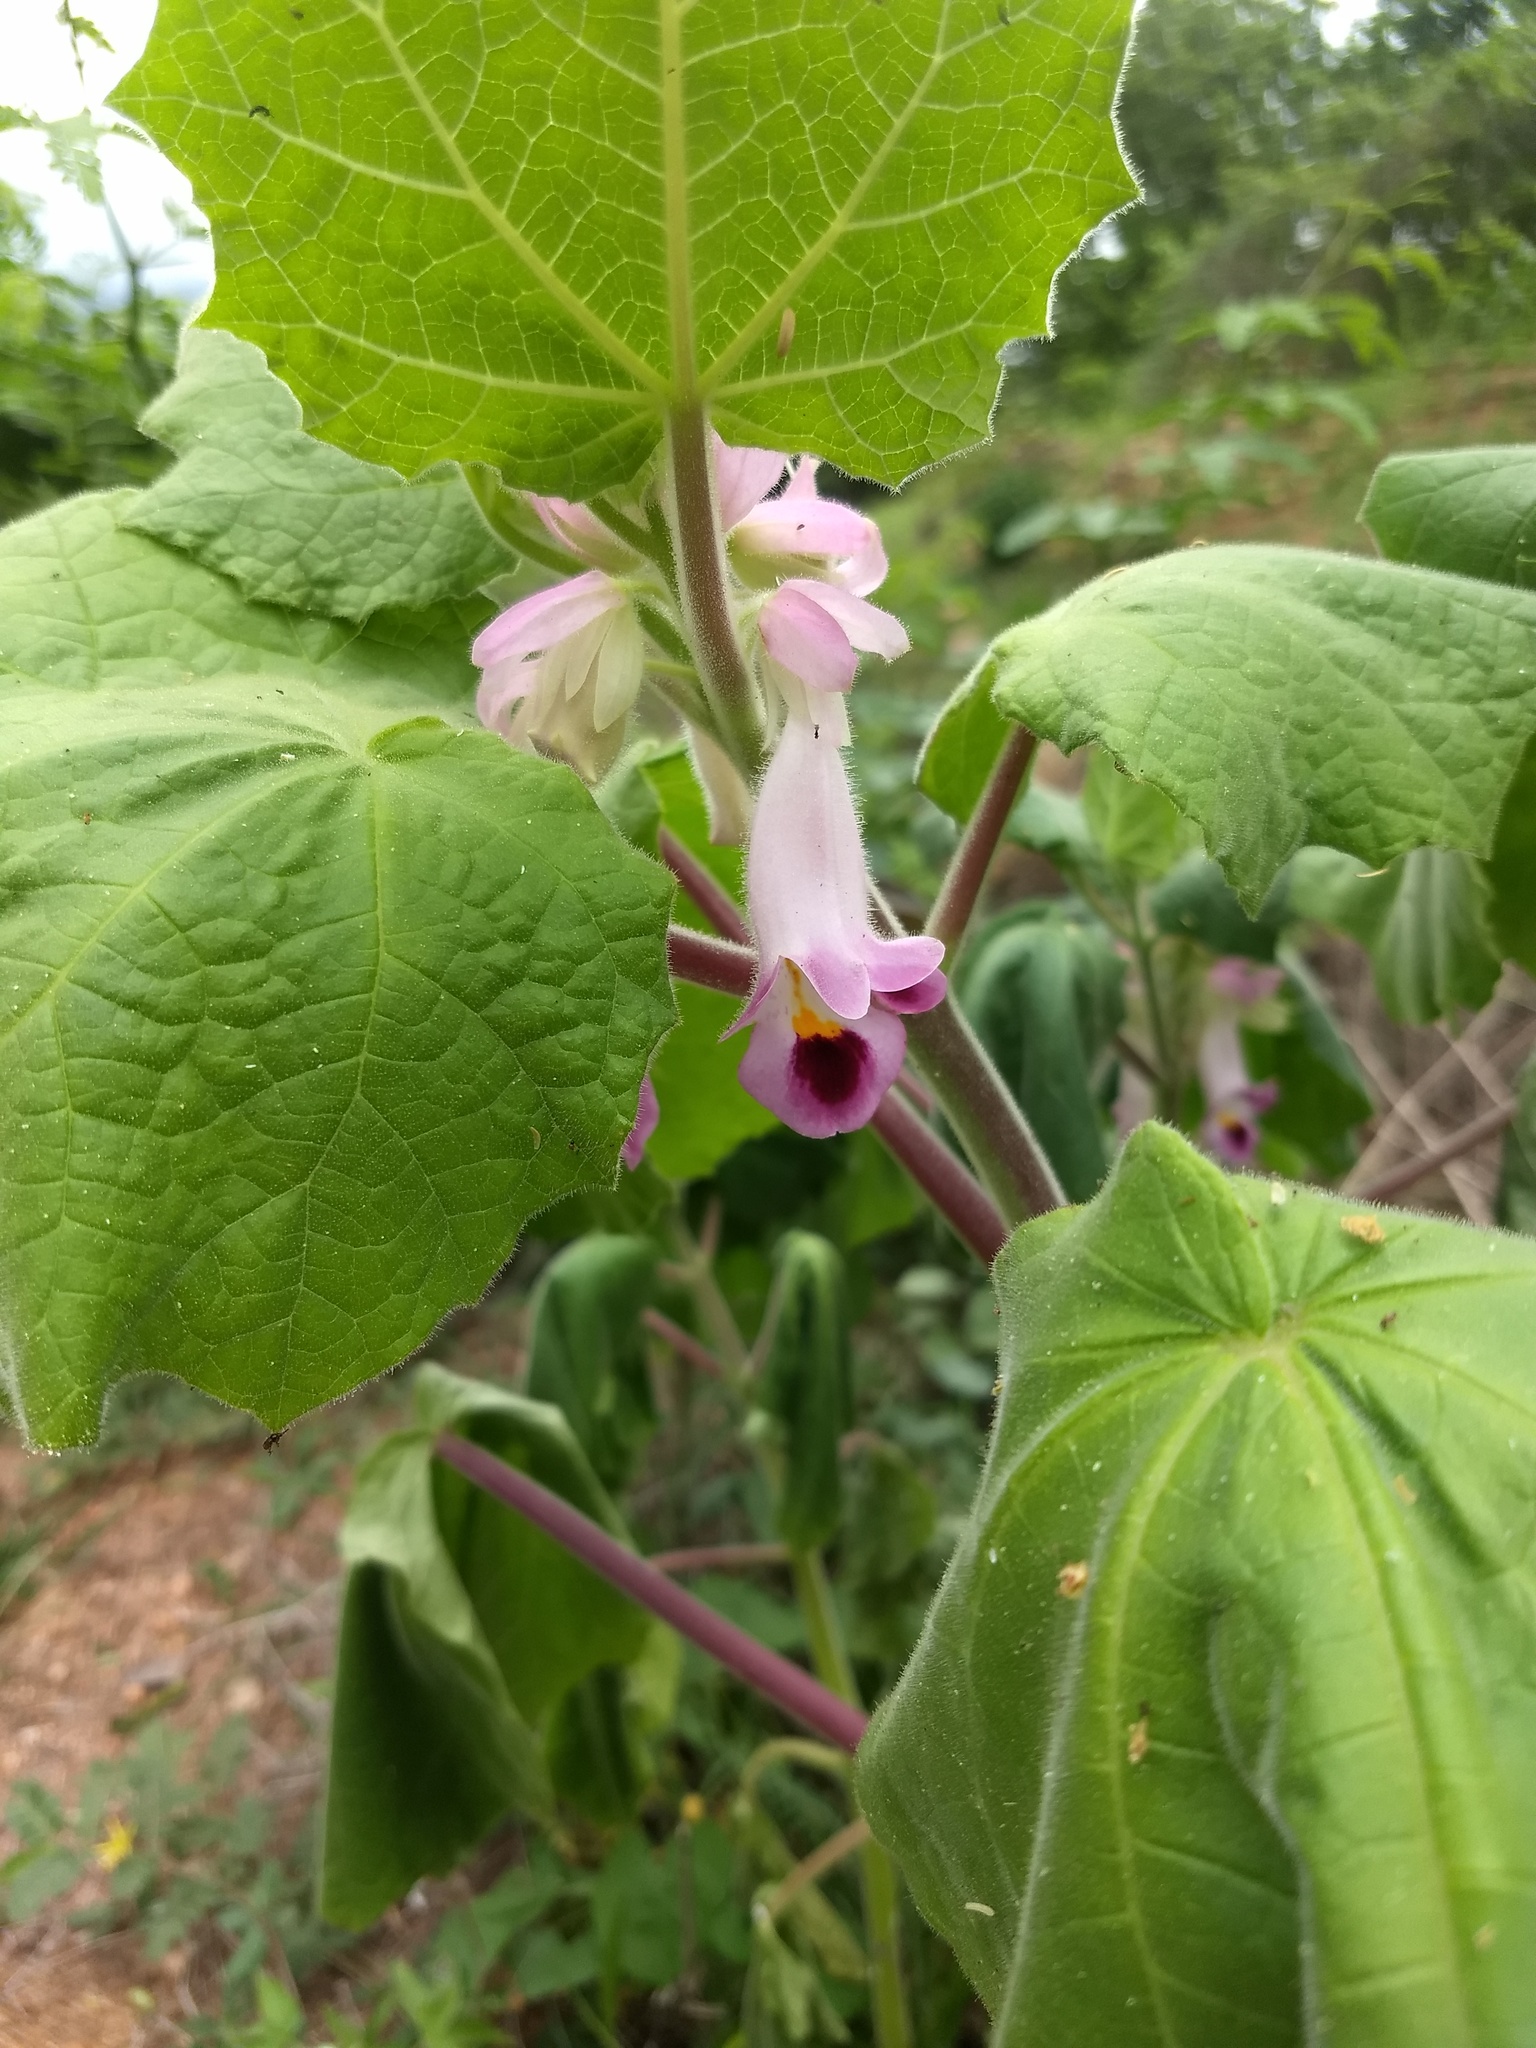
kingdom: Plantae
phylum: Tracheophyta
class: Magnoliopsida
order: Lamiales
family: Martyniaceae
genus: Martynia
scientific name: Martynia annua
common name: Tiger's-claw
